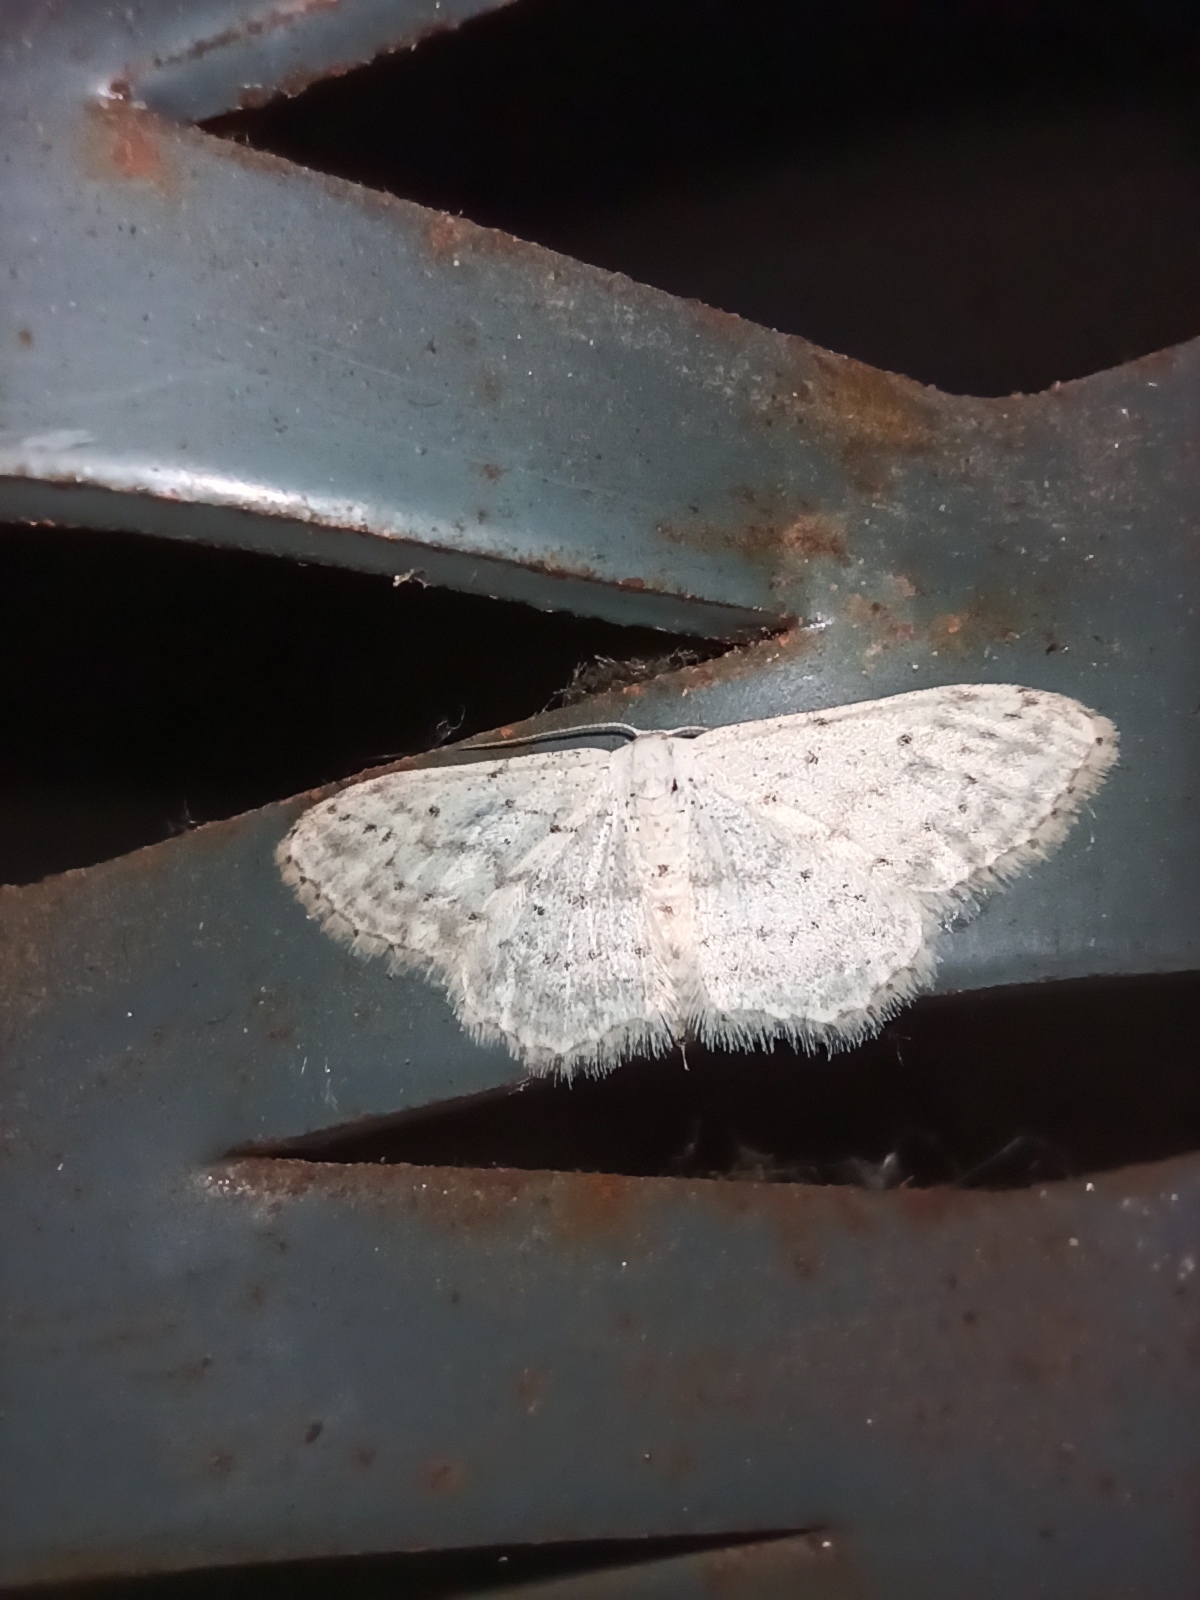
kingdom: Animalia
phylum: Arthropoda
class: Insecta
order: Lepidoptera
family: Geometridae
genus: Idaea
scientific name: Idaea seriata
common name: Small dusty wave
